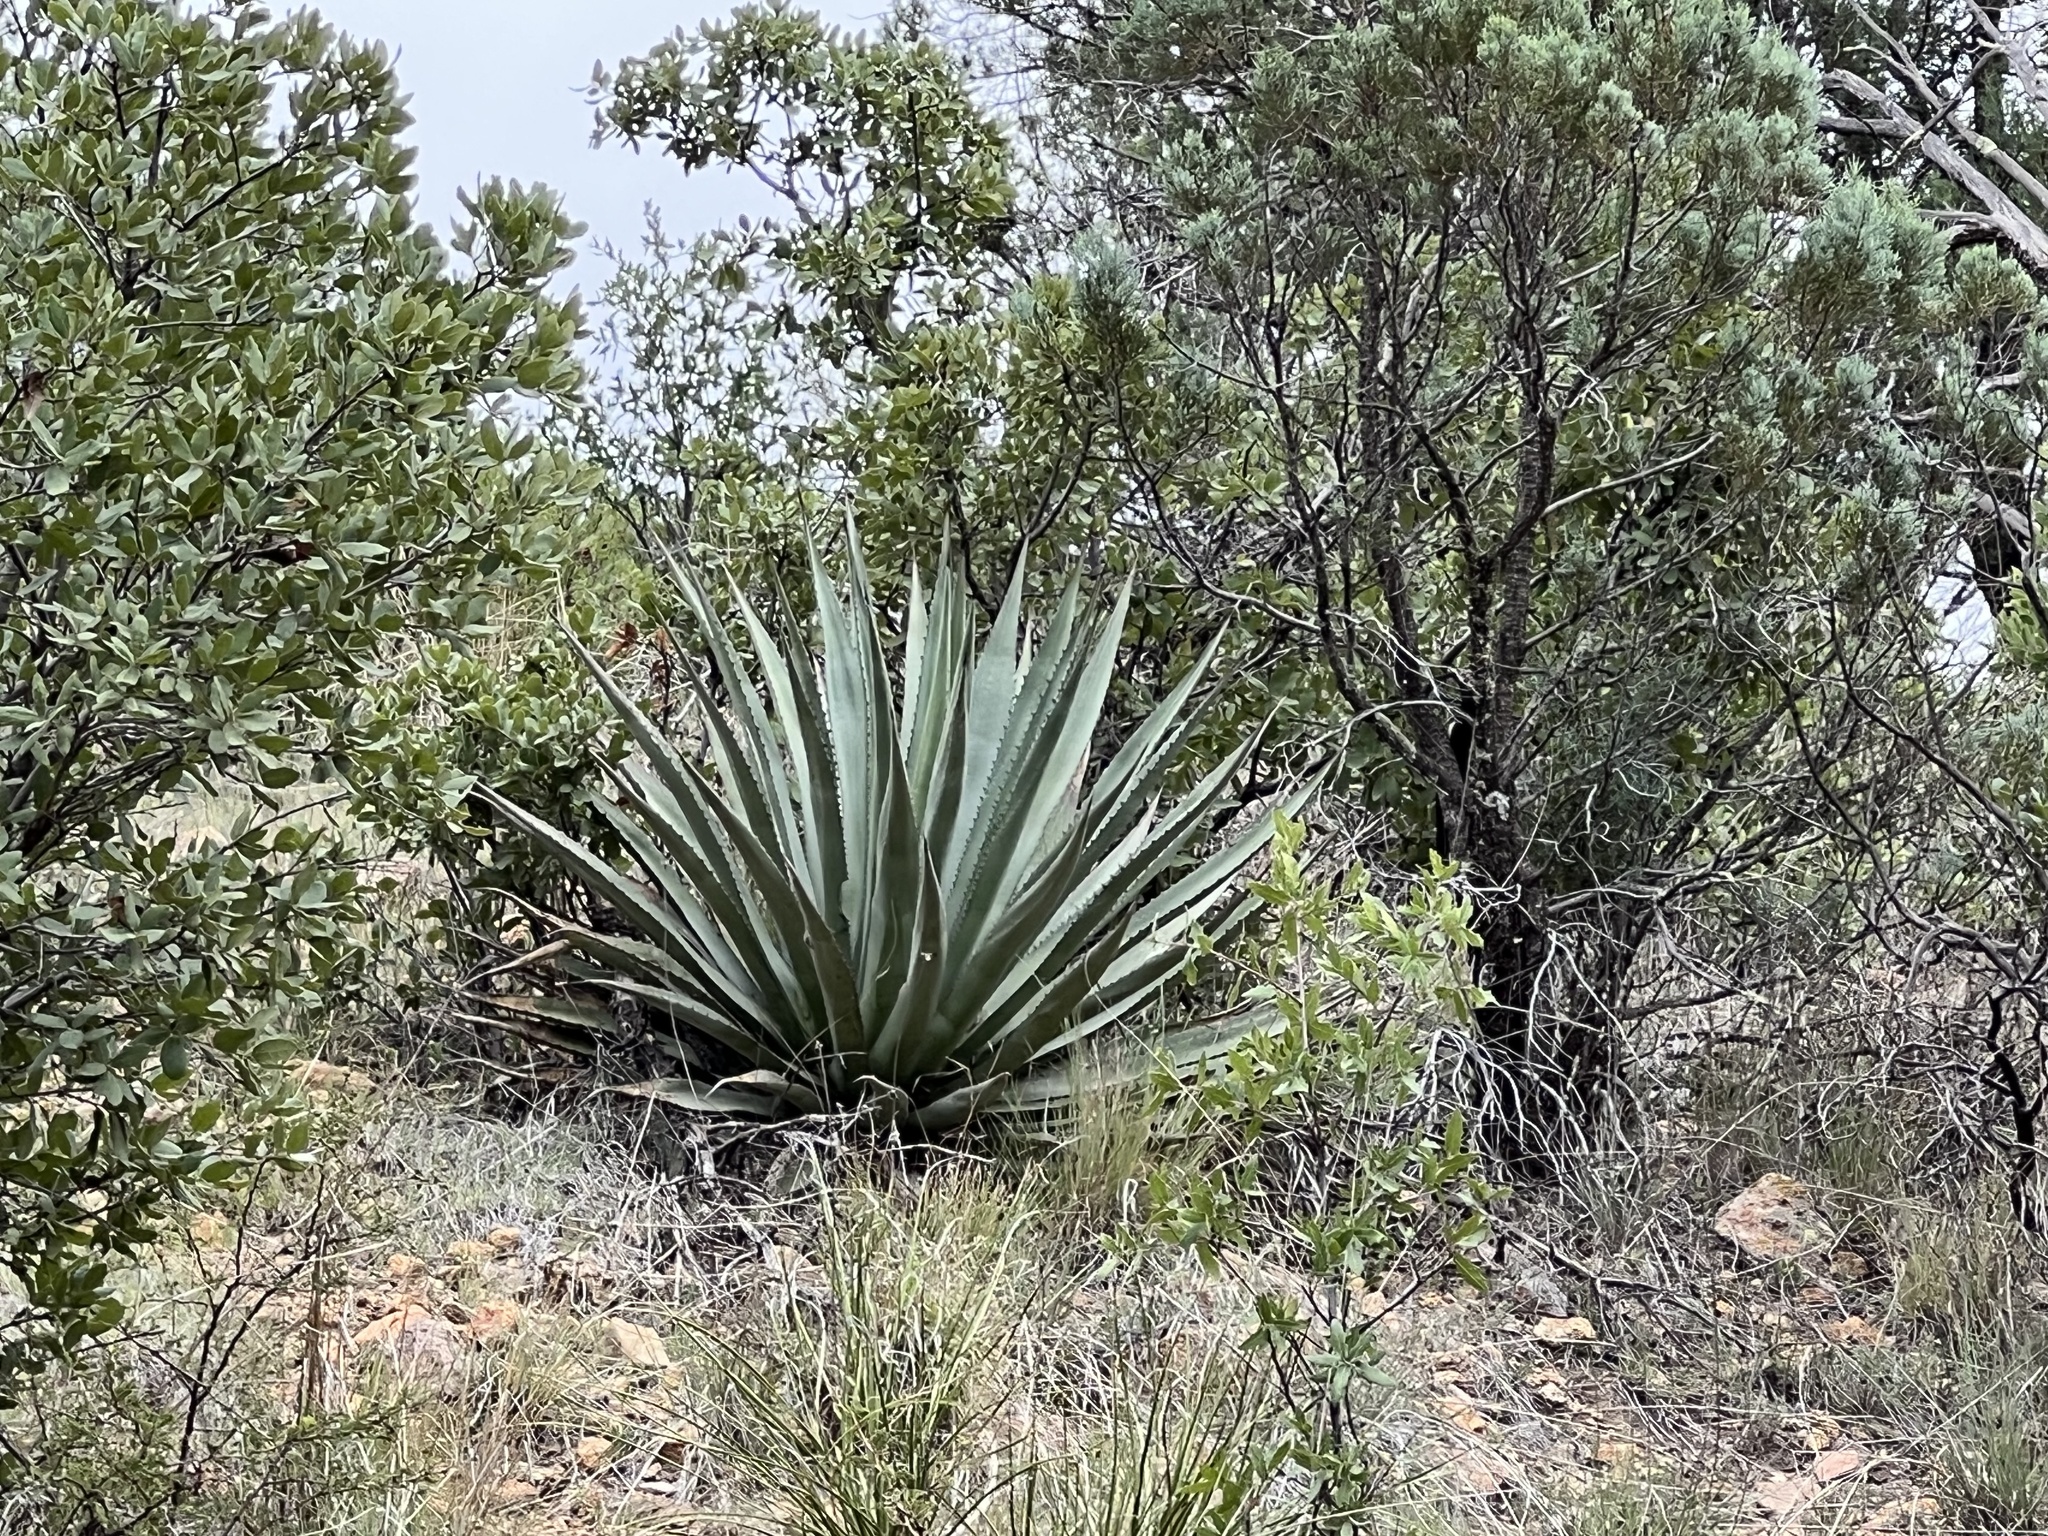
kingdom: Plantae
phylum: Tracheophyta
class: Liliopsida
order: Asparagales
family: Asparagaceae
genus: Agave
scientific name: Agave palmeri
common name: Palmer agave
